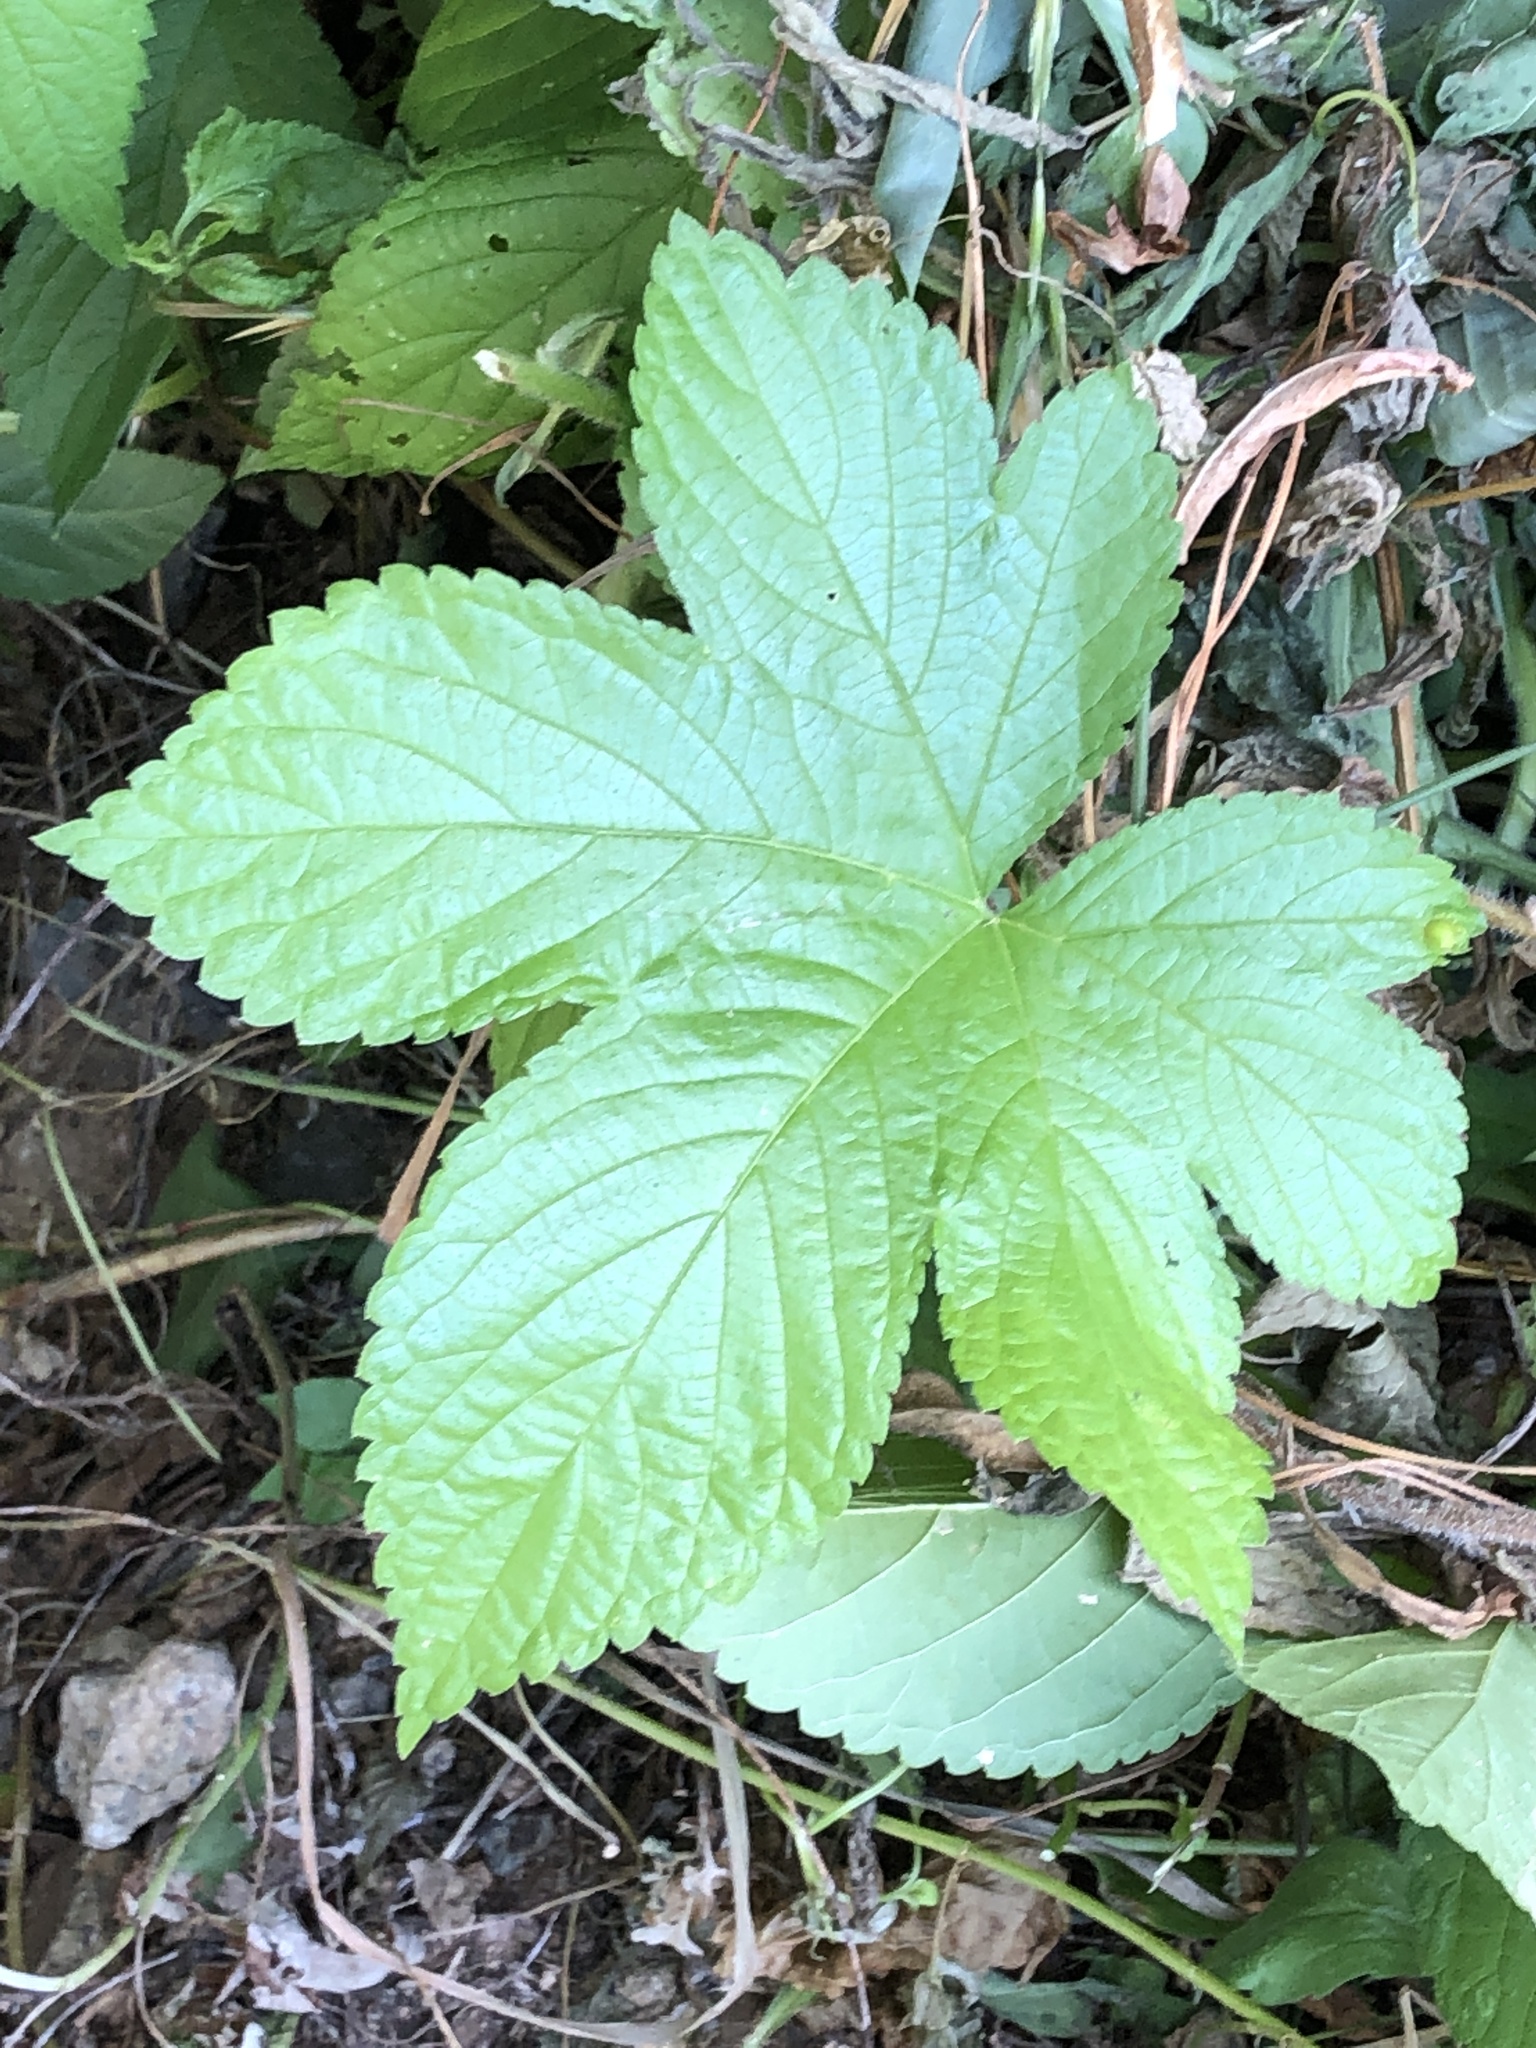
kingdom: Plantae
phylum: Tracheophyta
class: Magnoliopsida
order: Rosales
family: Cannabaceae
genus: Humulus
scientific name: Humulus scandens
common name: Japanese hop
